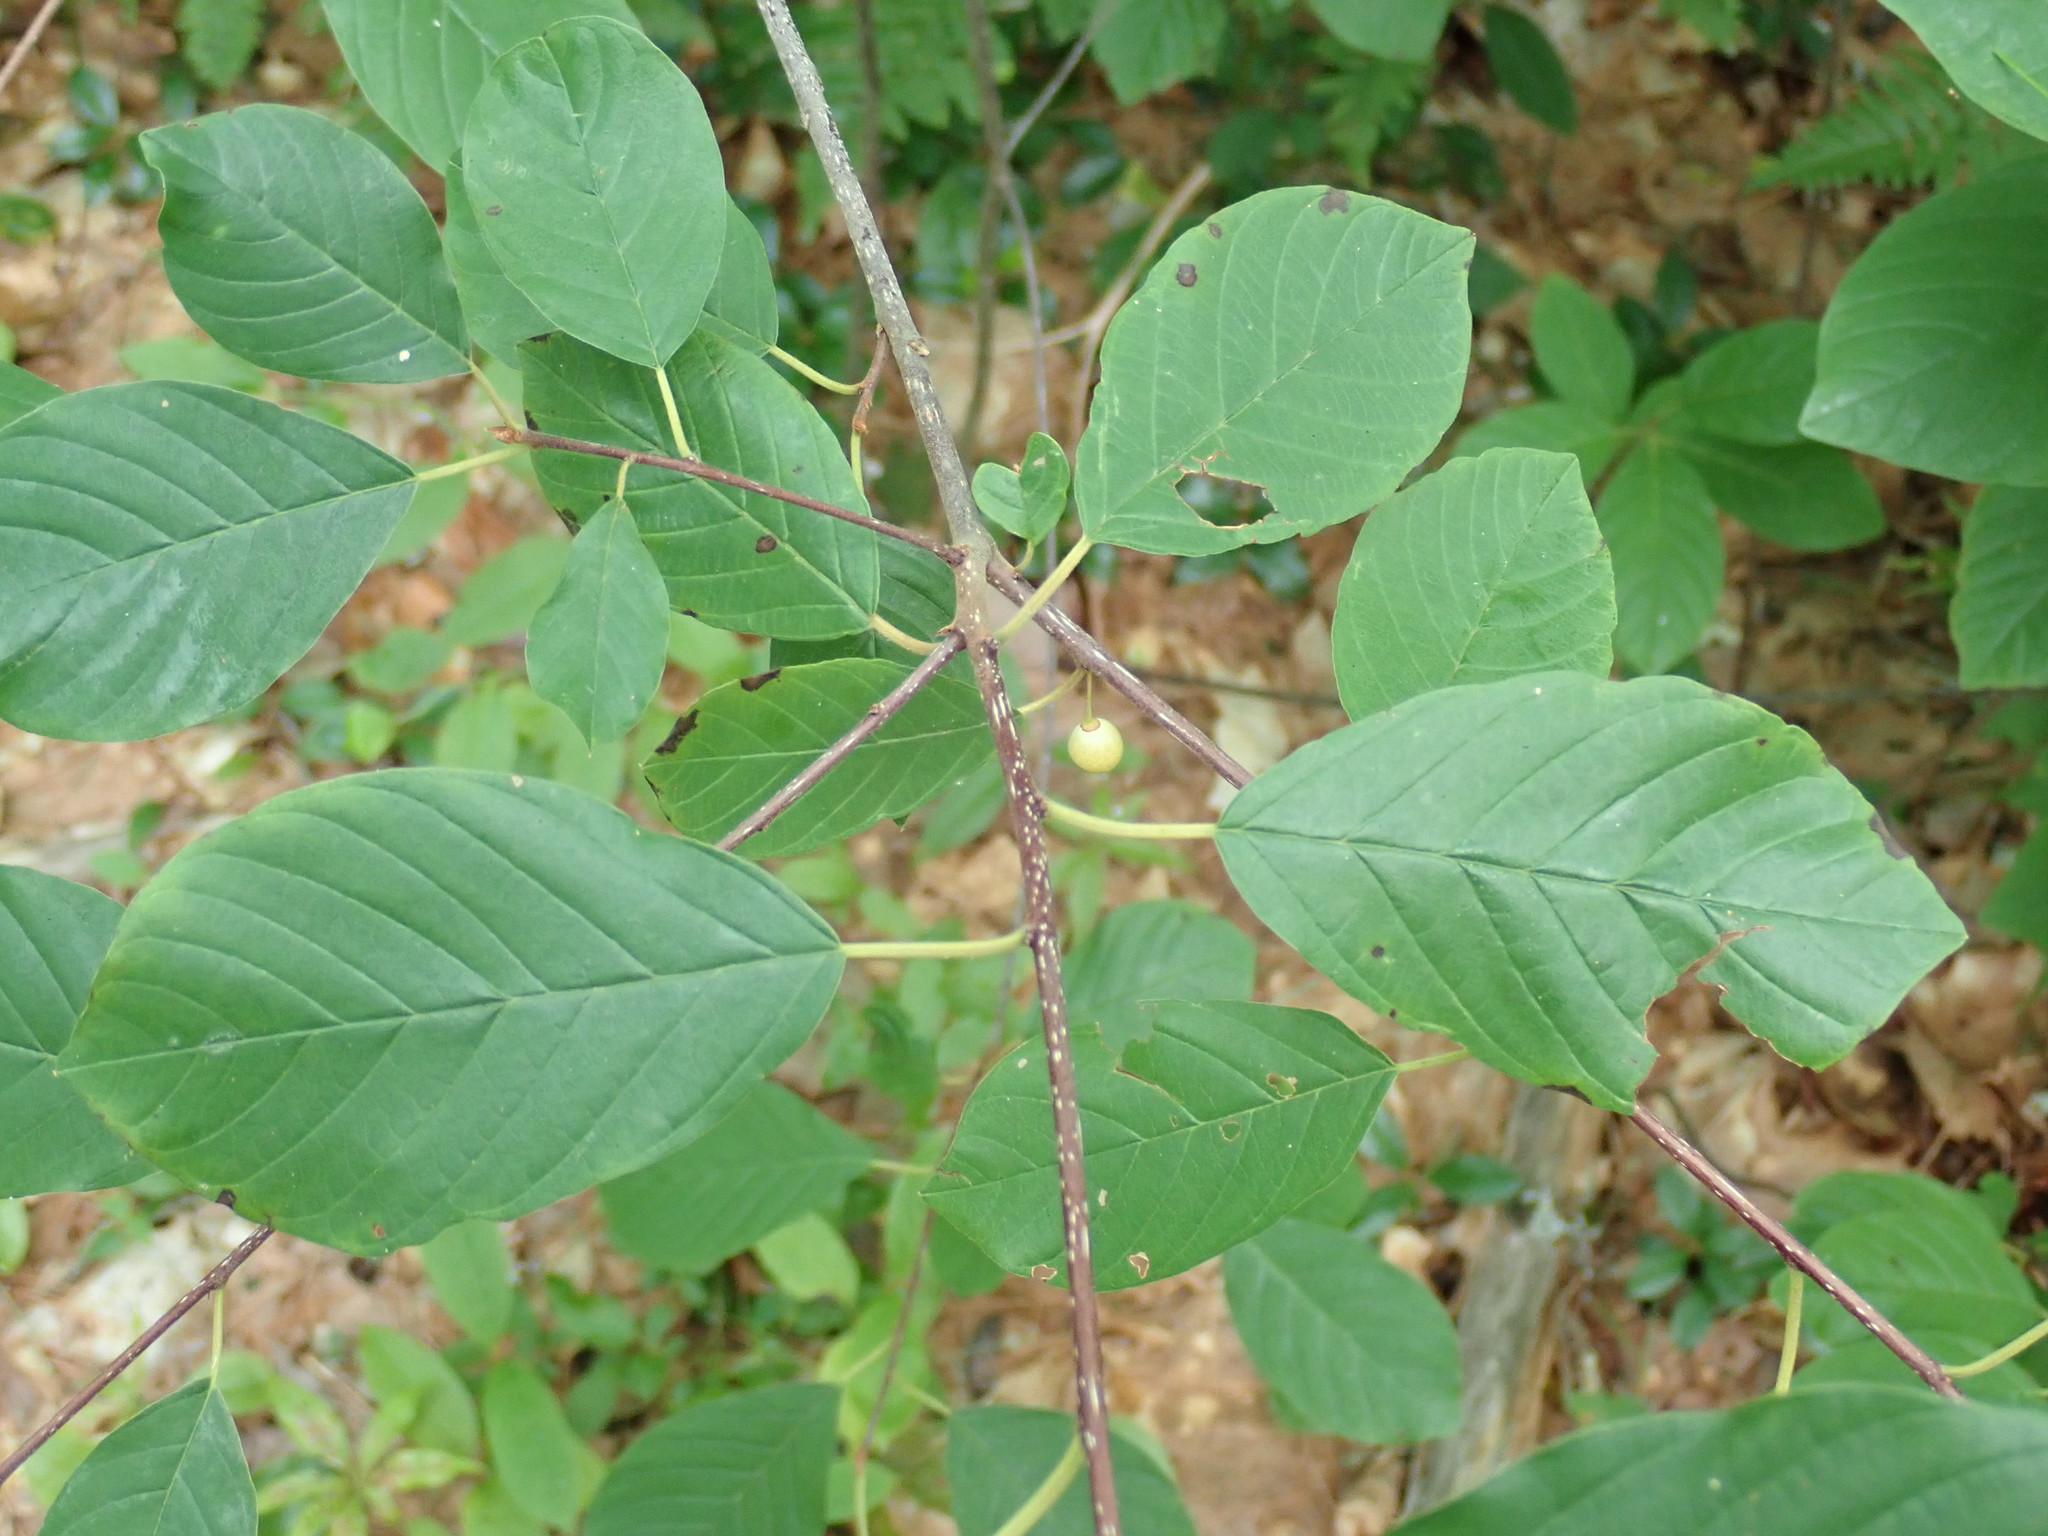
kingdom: Plantae
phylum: Tracheophyta
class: Magnoliopsida
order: Rosales
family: Rhamnaceae
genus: Frangula
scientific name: Frangula alnus
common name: Alder buckthorn
